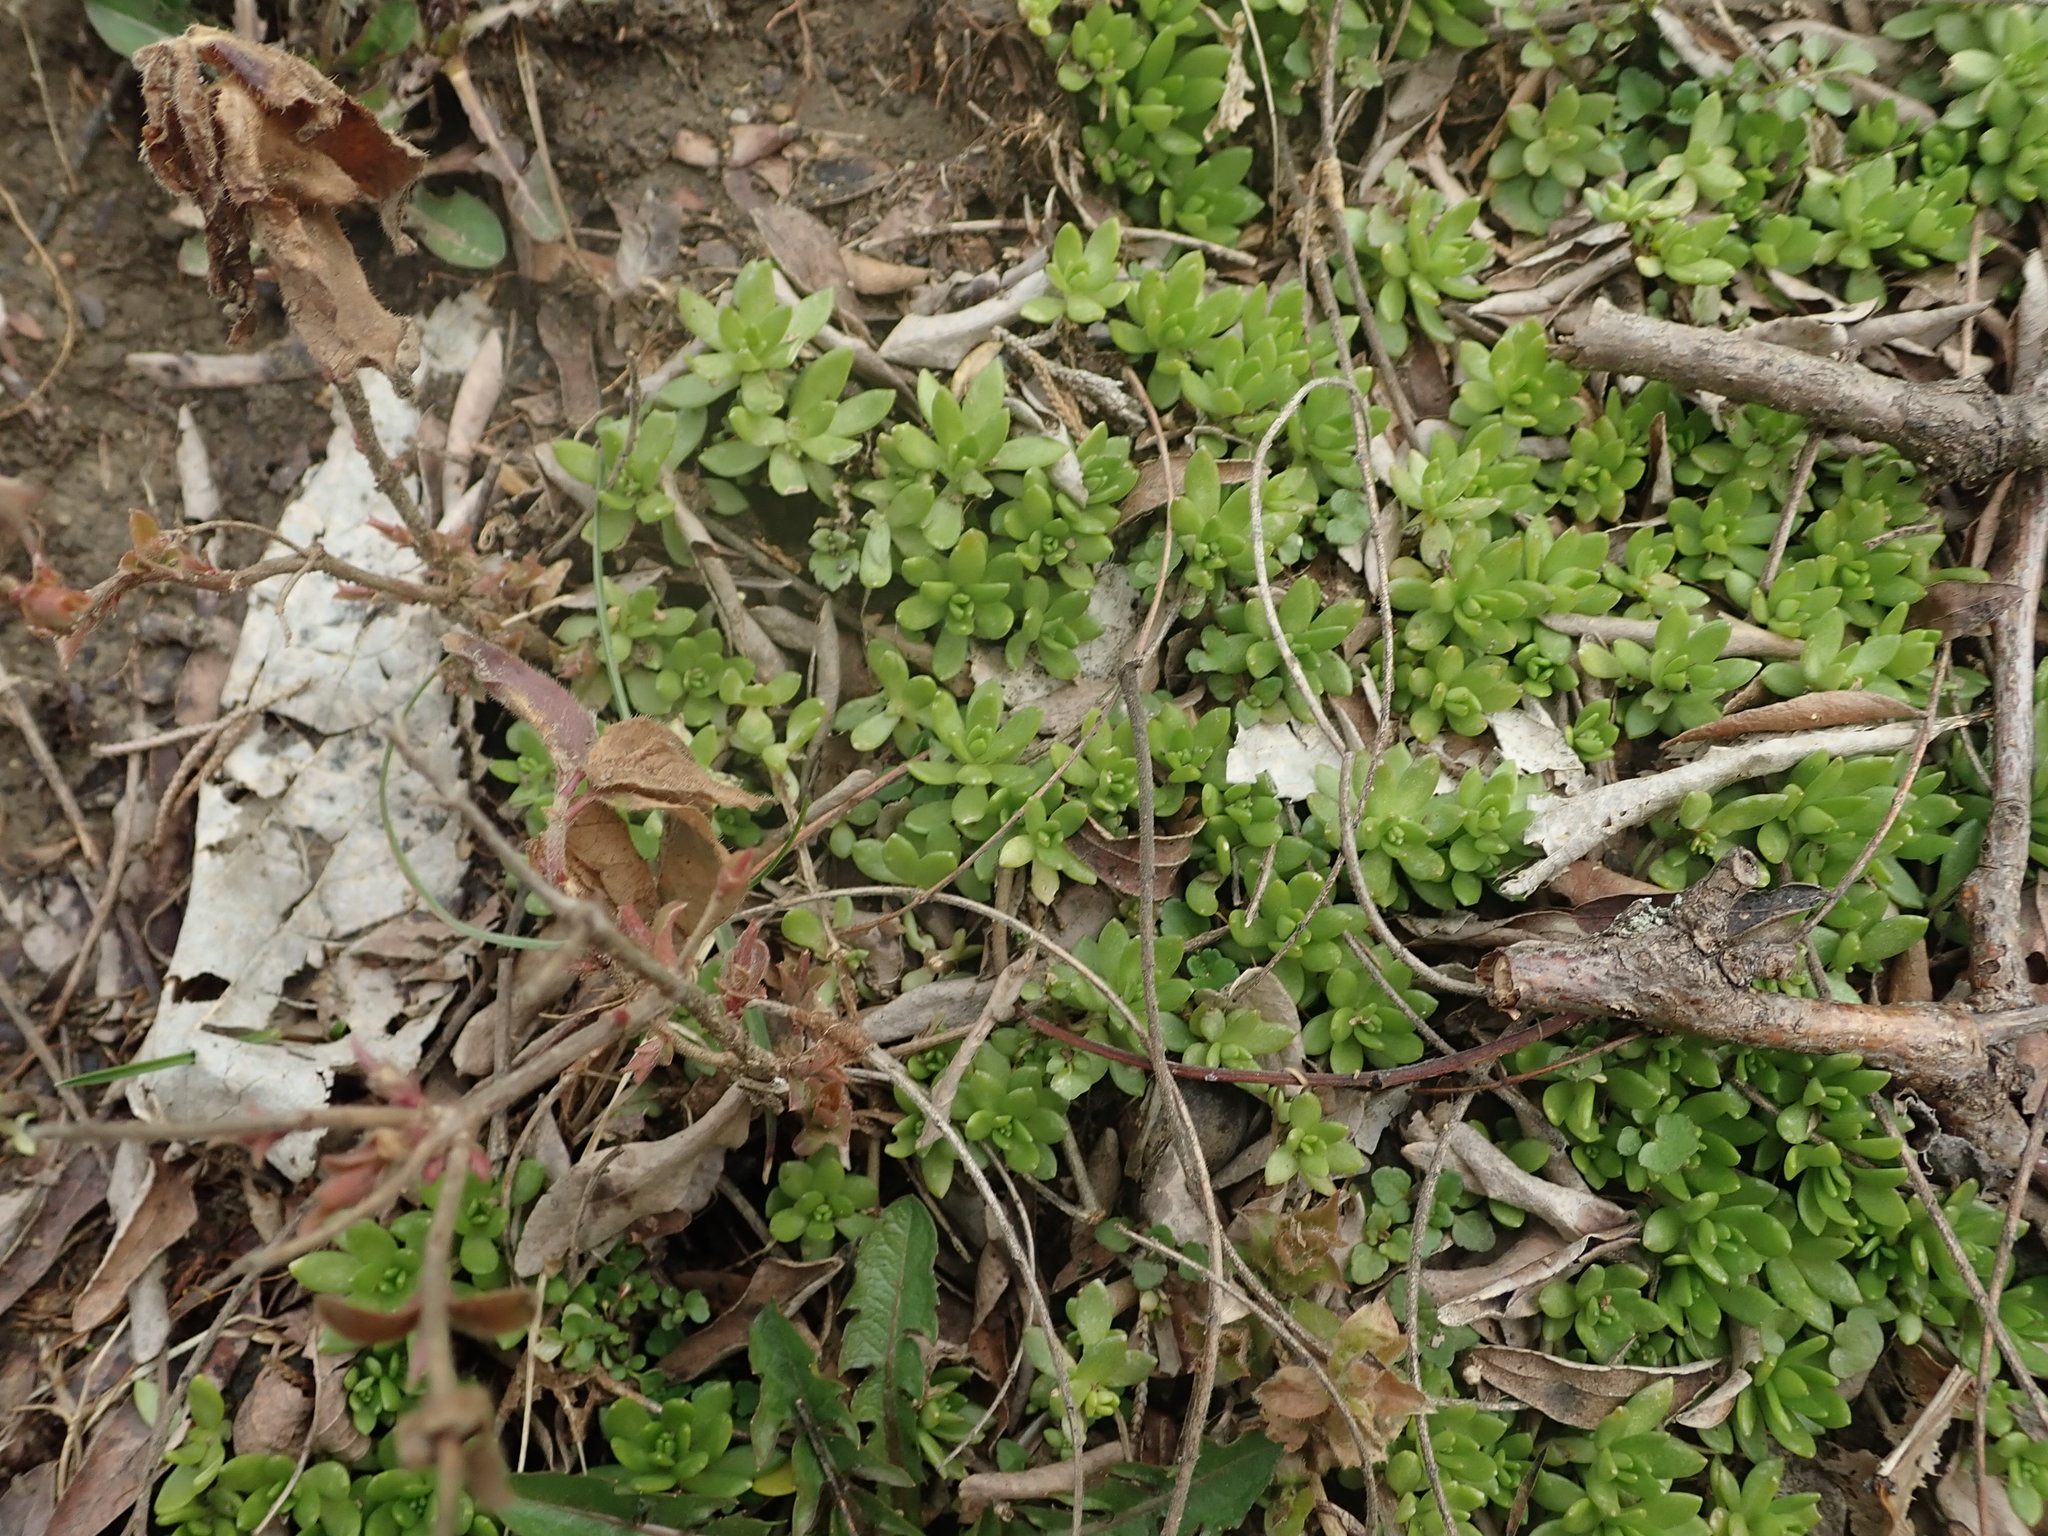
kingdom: Plantae
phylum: Tracheophyta
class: Magnoliopsida
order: Saxifragales
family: Crassulaceae
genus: Sedum
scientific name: Sedum sarmentosum
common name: Stringy stonecrop
